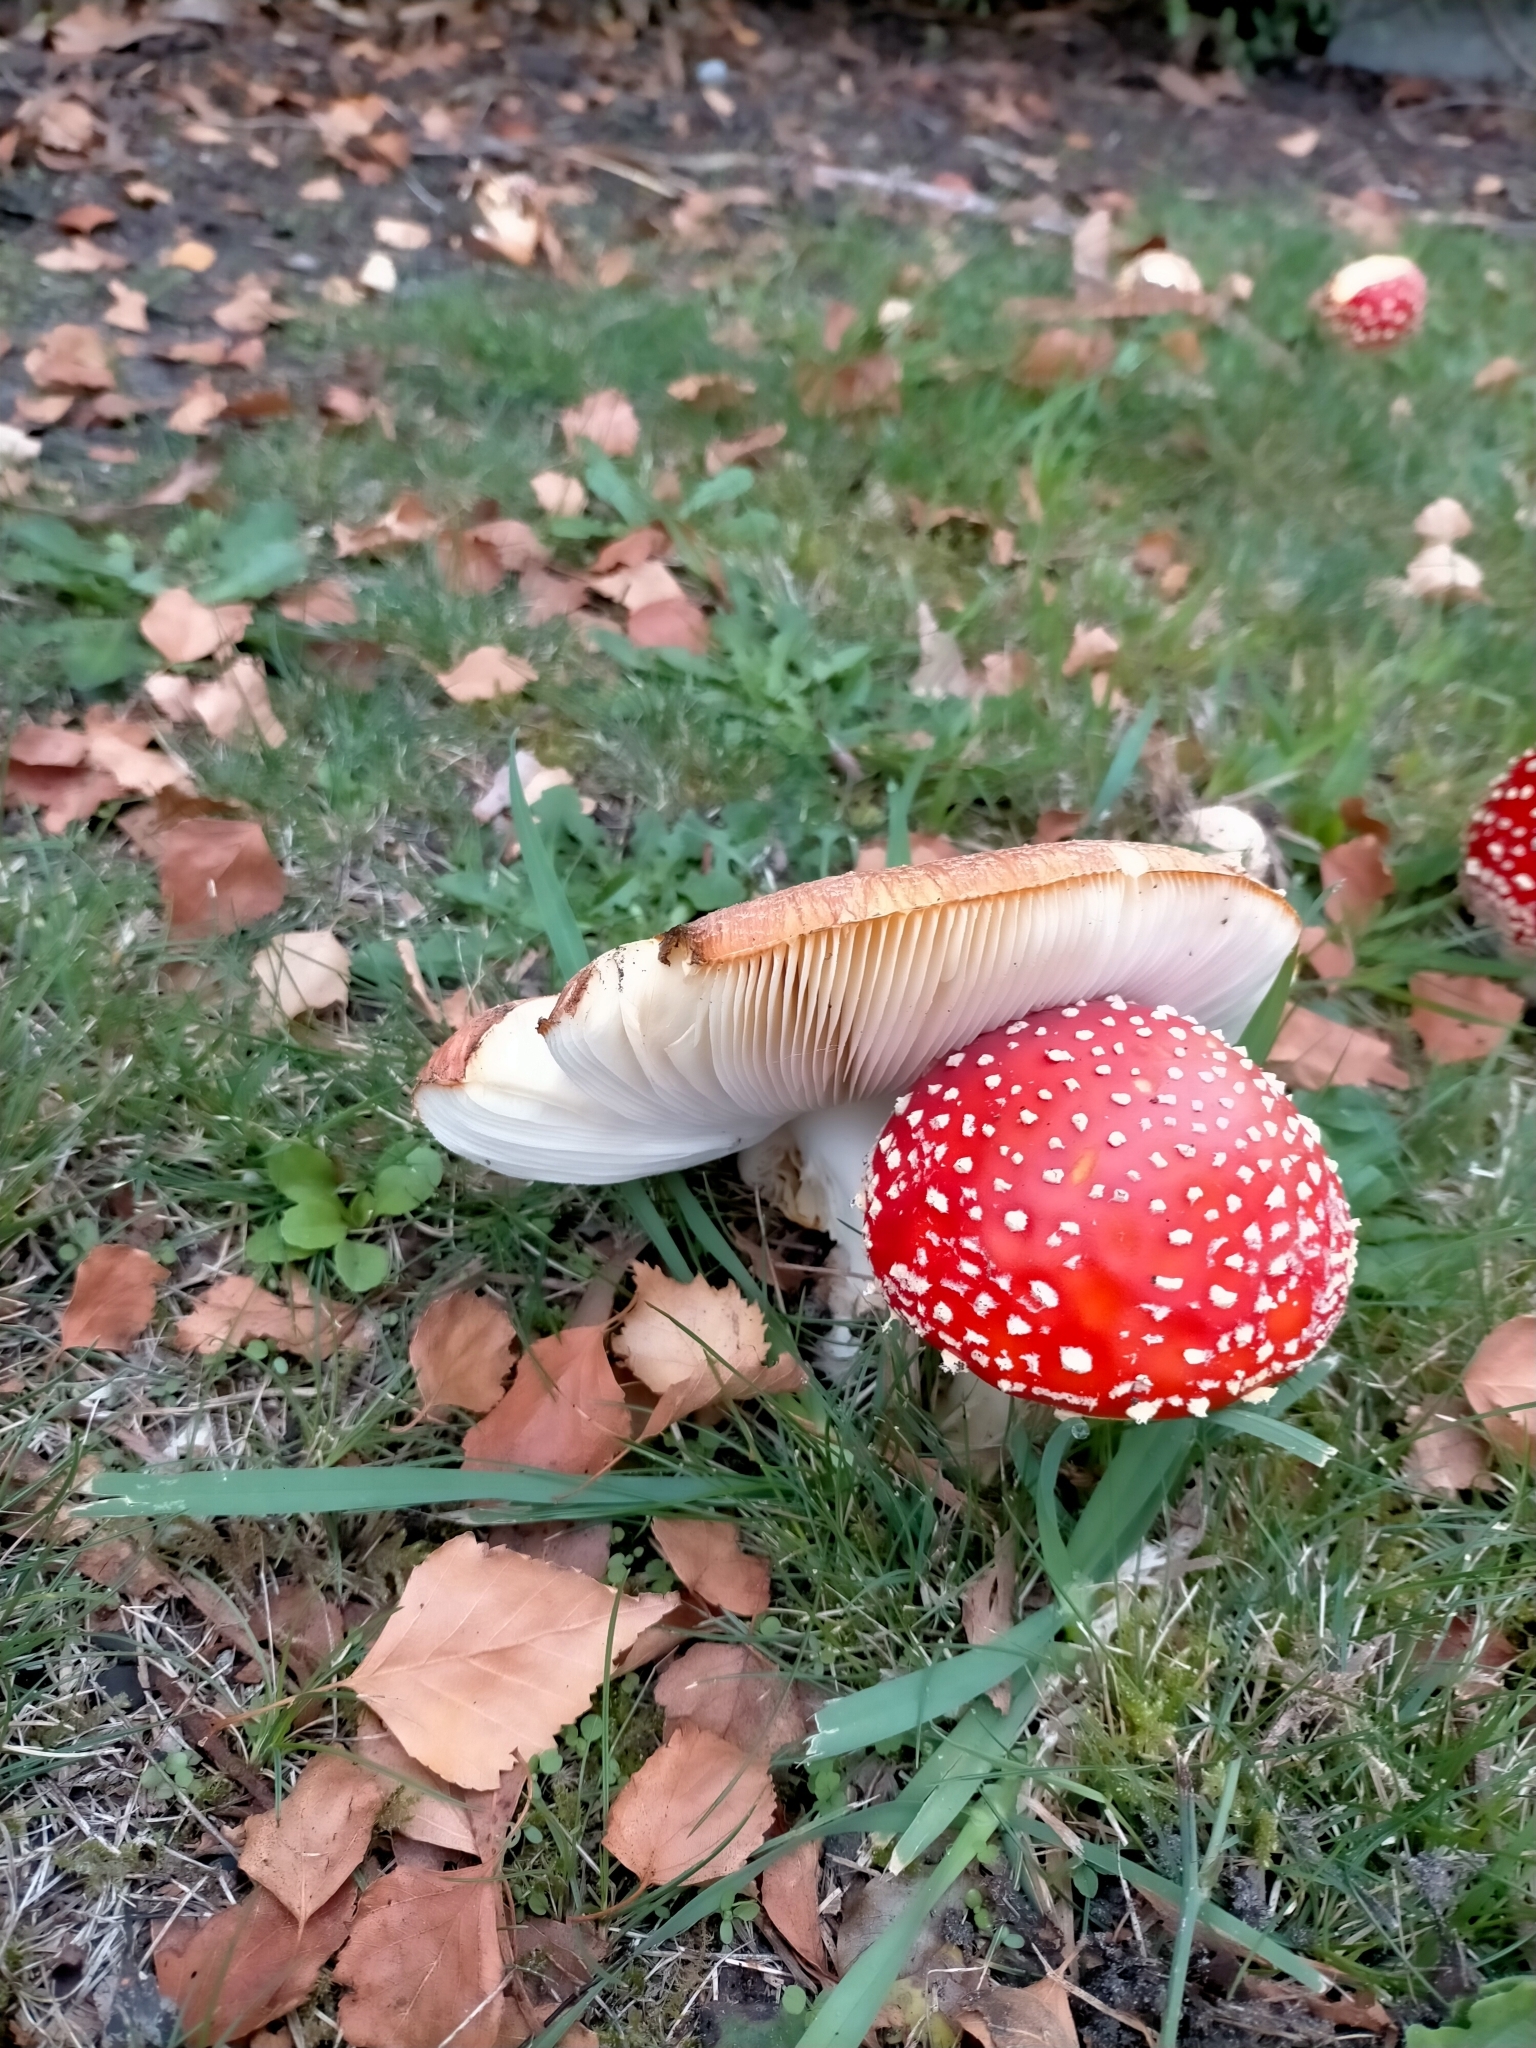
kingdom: Fungi
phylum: Basidiomycota
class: Agaricomycetes
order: Agaricales
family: Amanitaceae
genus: Amanita
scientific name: Amanita muscaria
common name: Fly agaric
